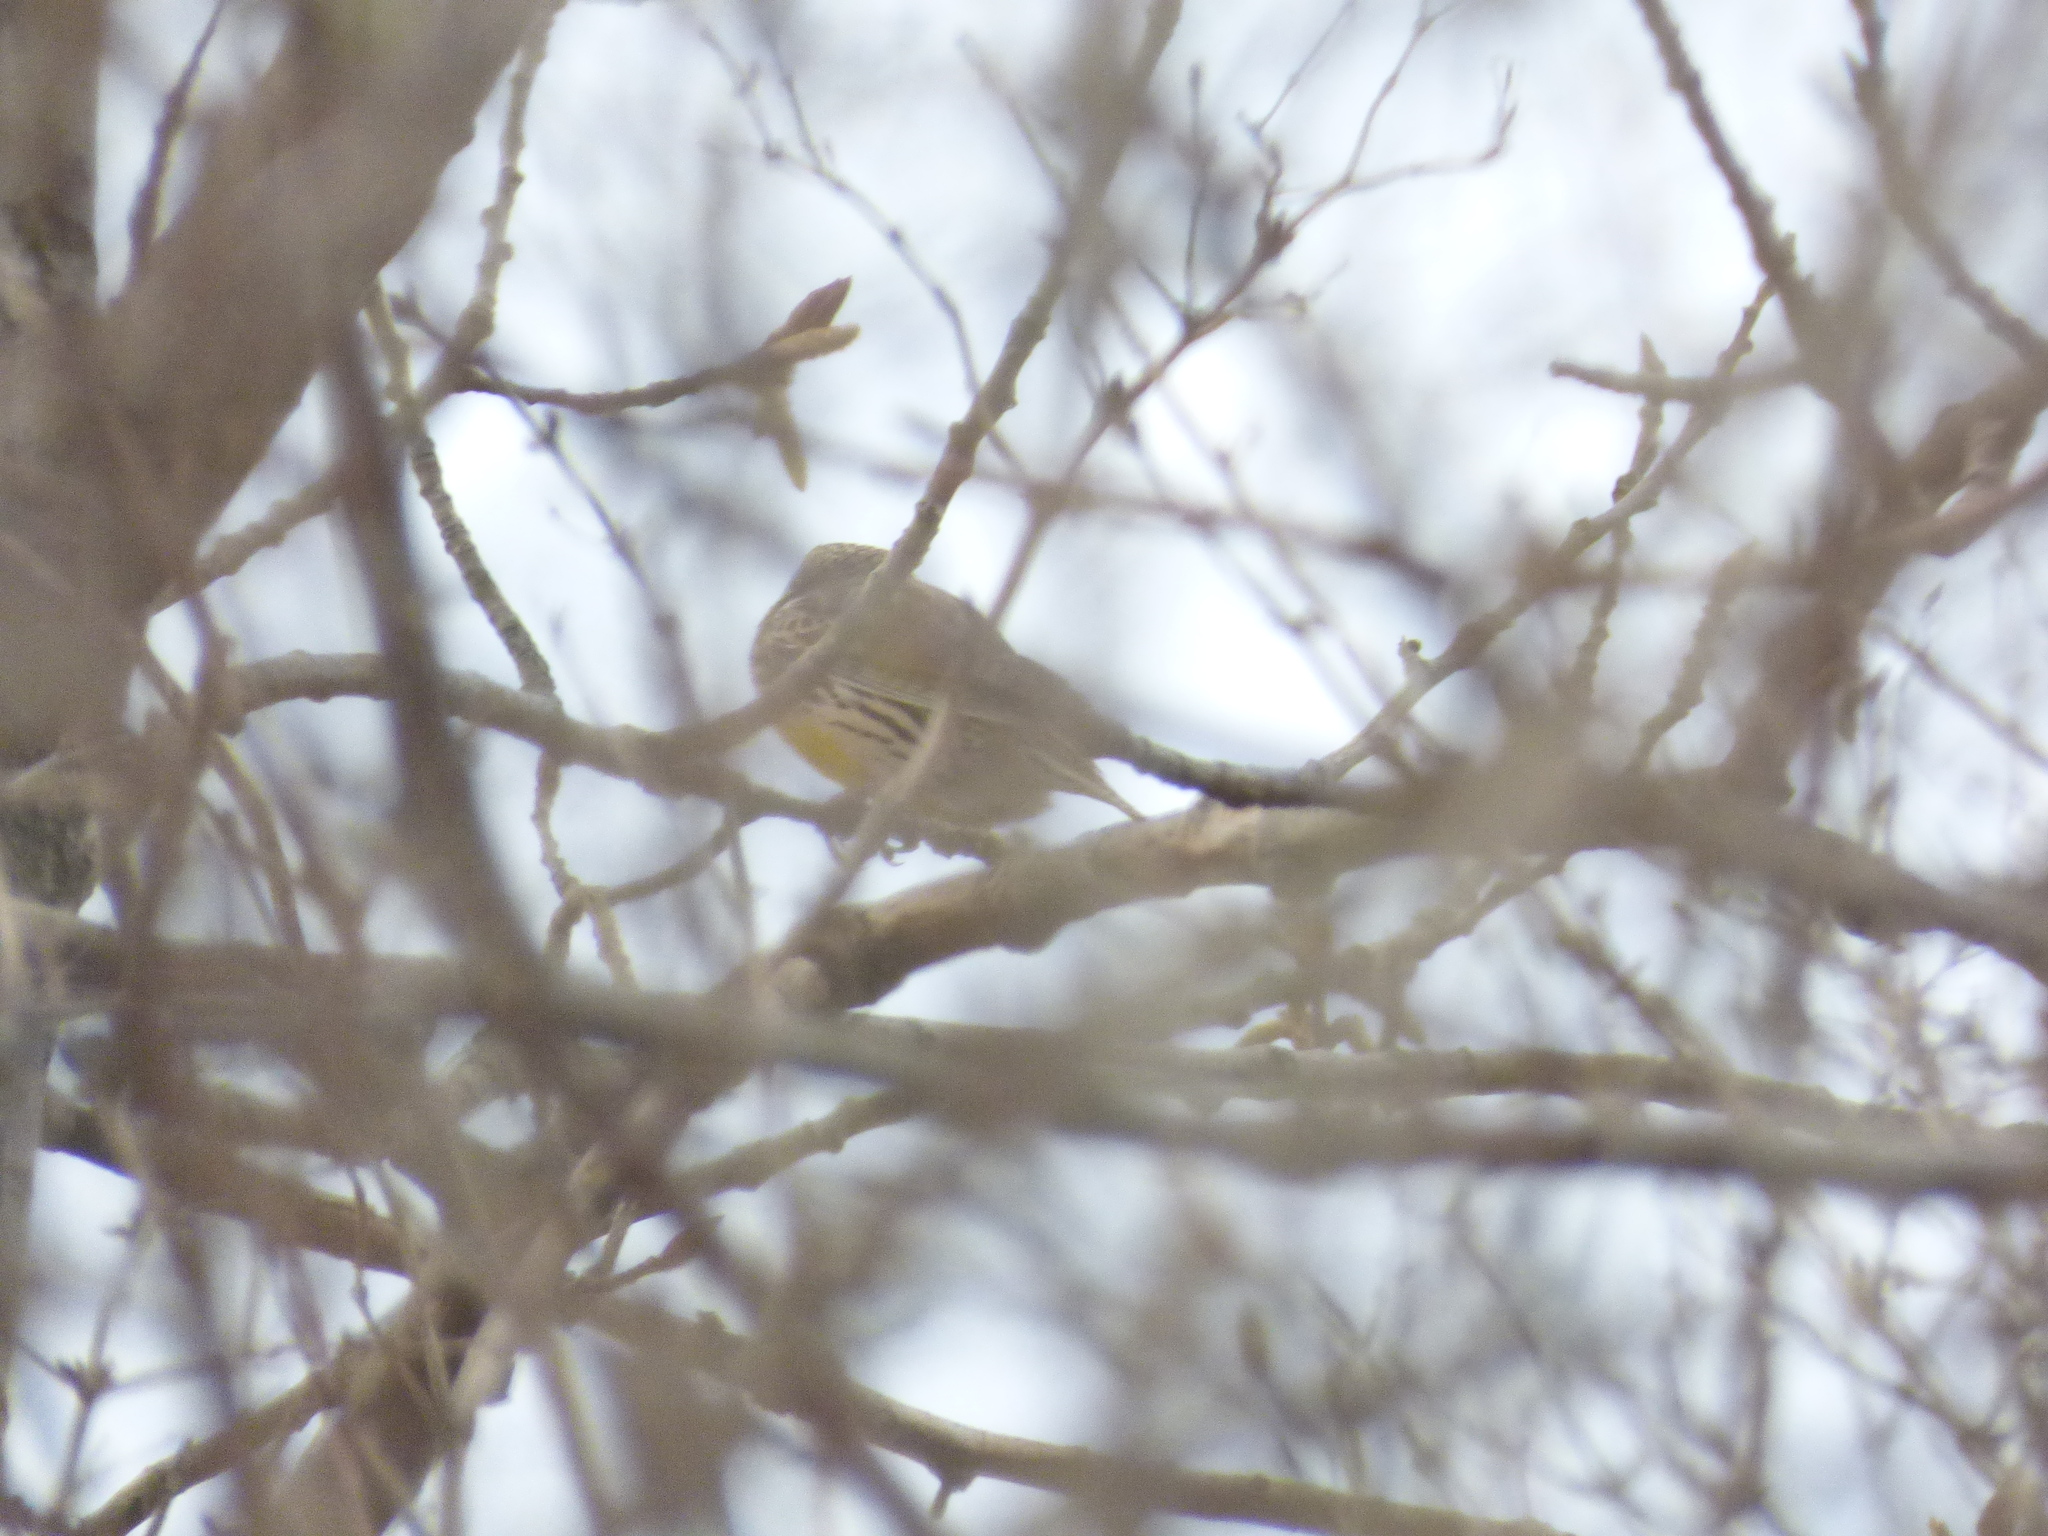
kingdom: Animalia
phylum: Chordata
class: Aves
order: Passeriformes
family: Icteridae
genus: Sturnella
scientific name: Sturnella magna
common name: Eastern meadowlark
